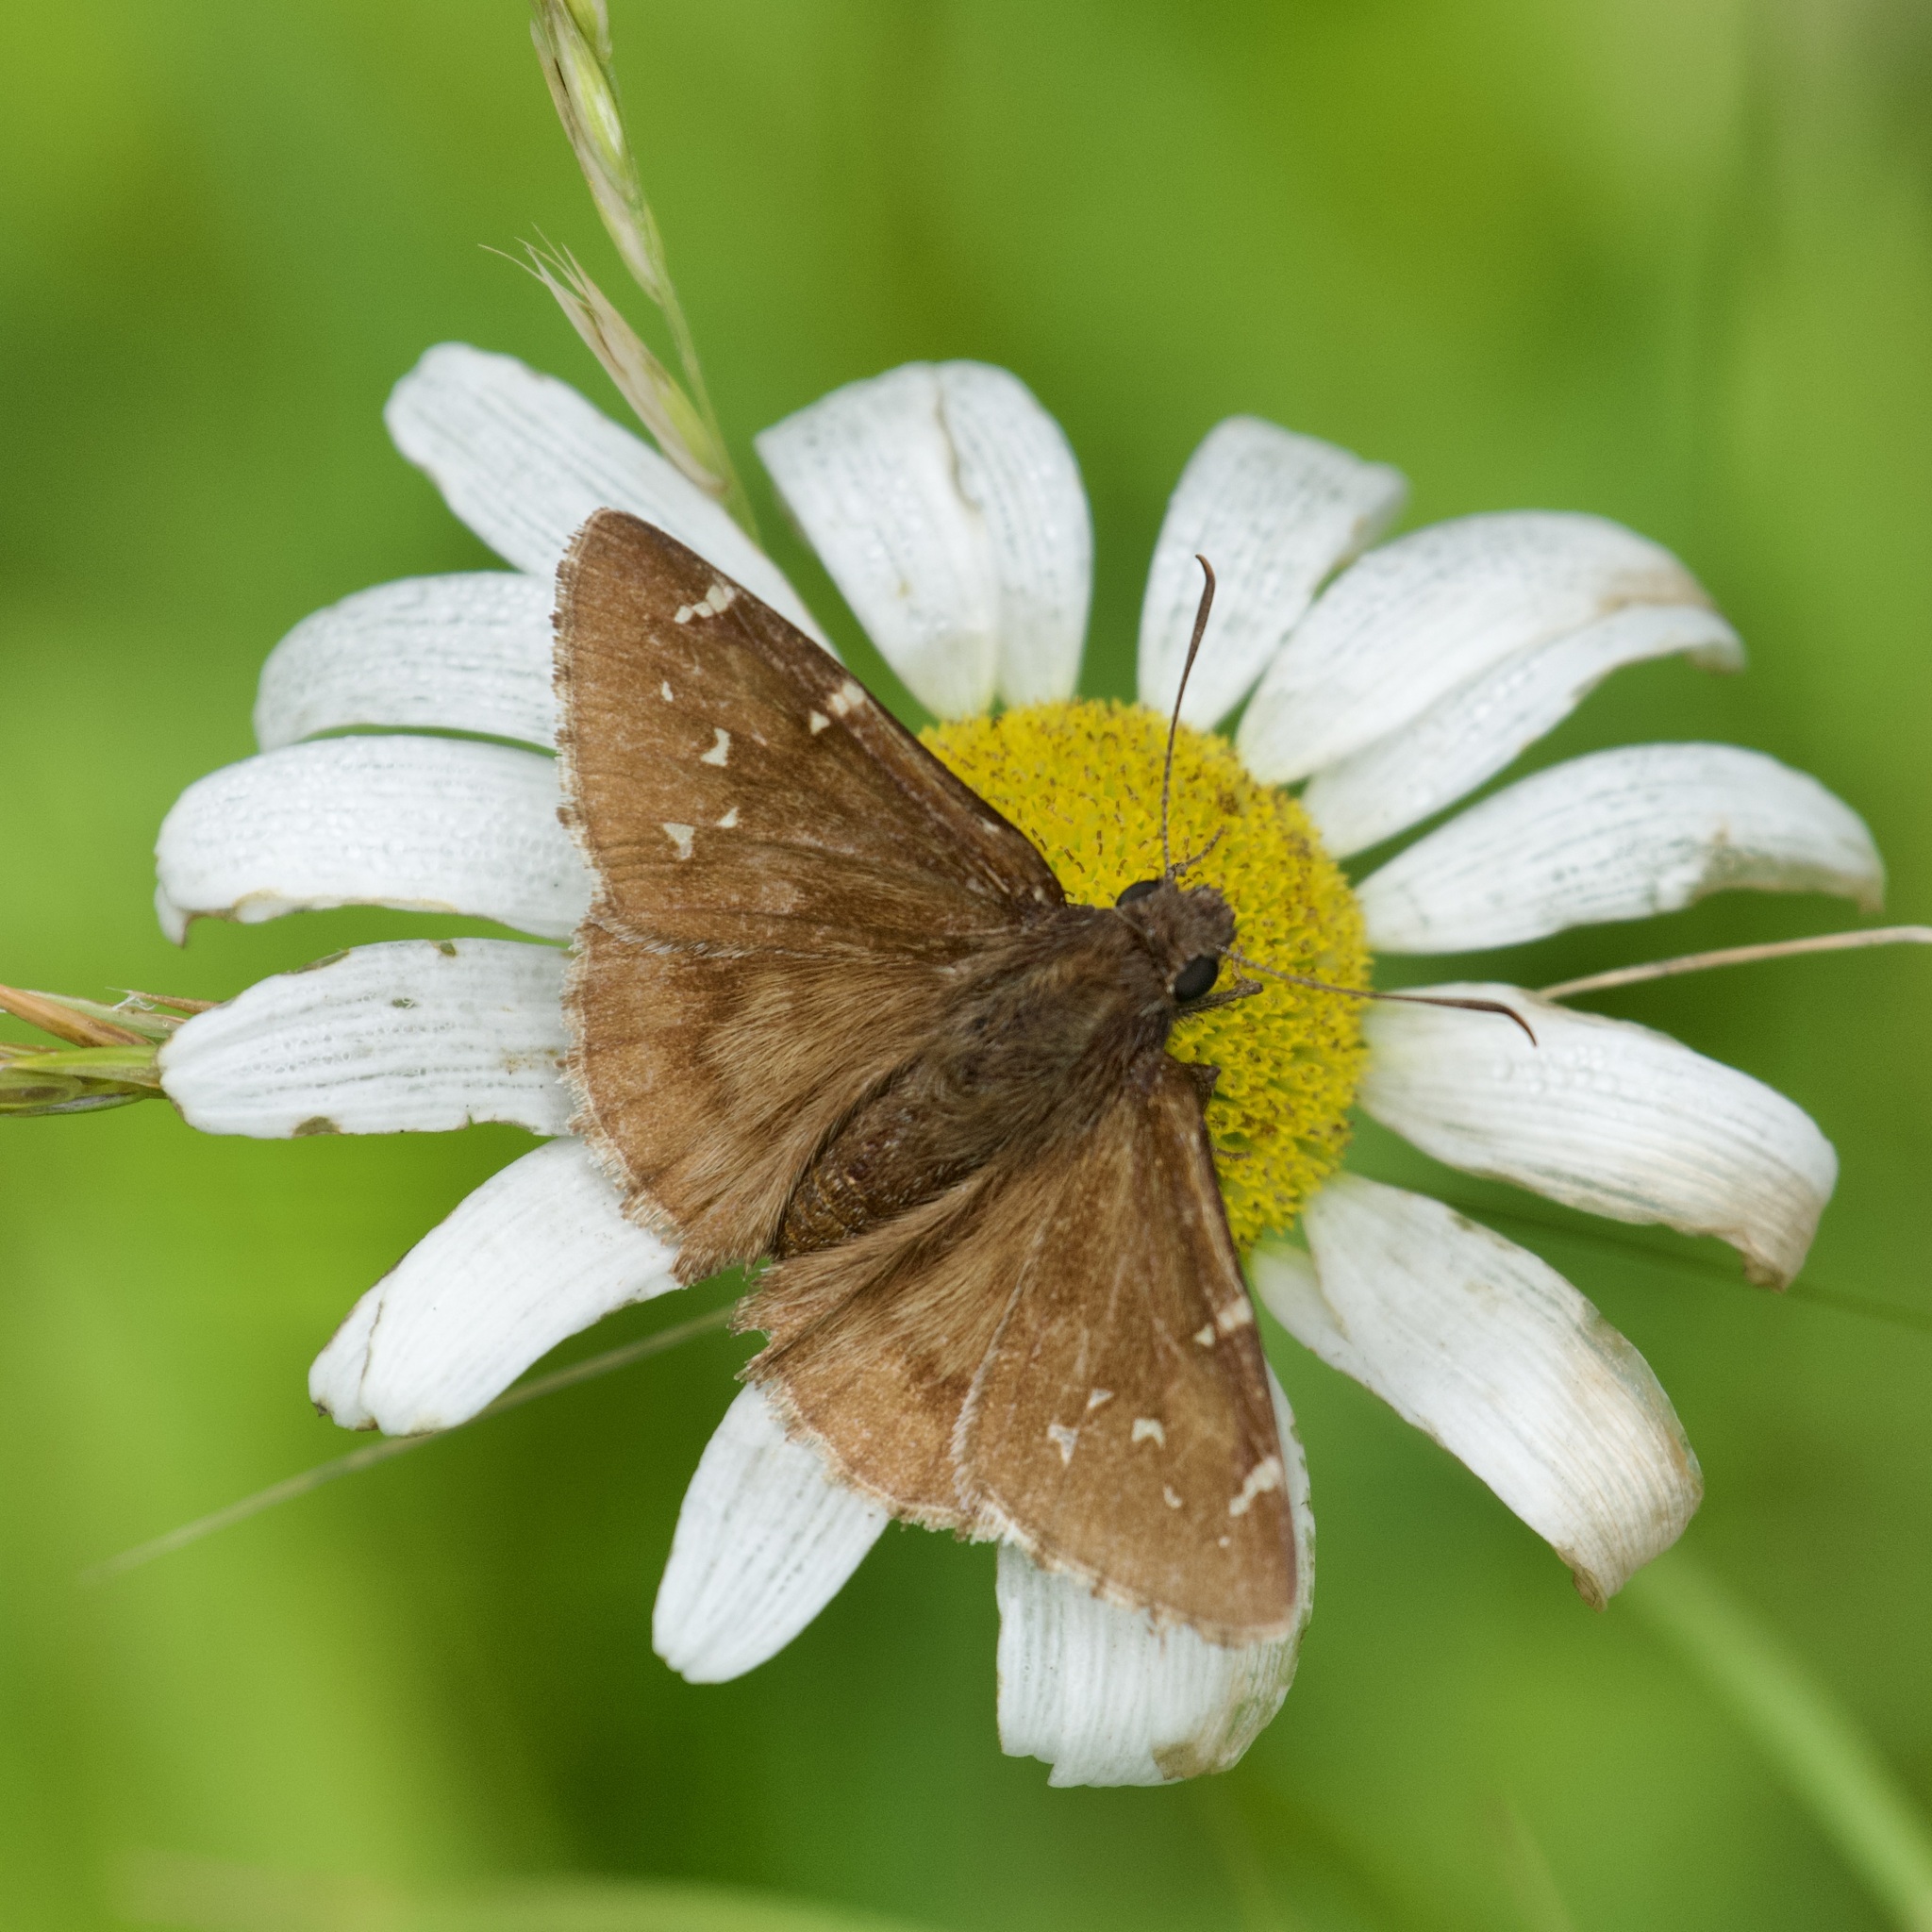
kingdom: Animalia
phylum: Arthropoda
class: Insecta
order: Lepidoptera
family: Hesperiidae
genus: Thorybes
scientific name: Thorybes pylades
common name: Northern cloudywing
